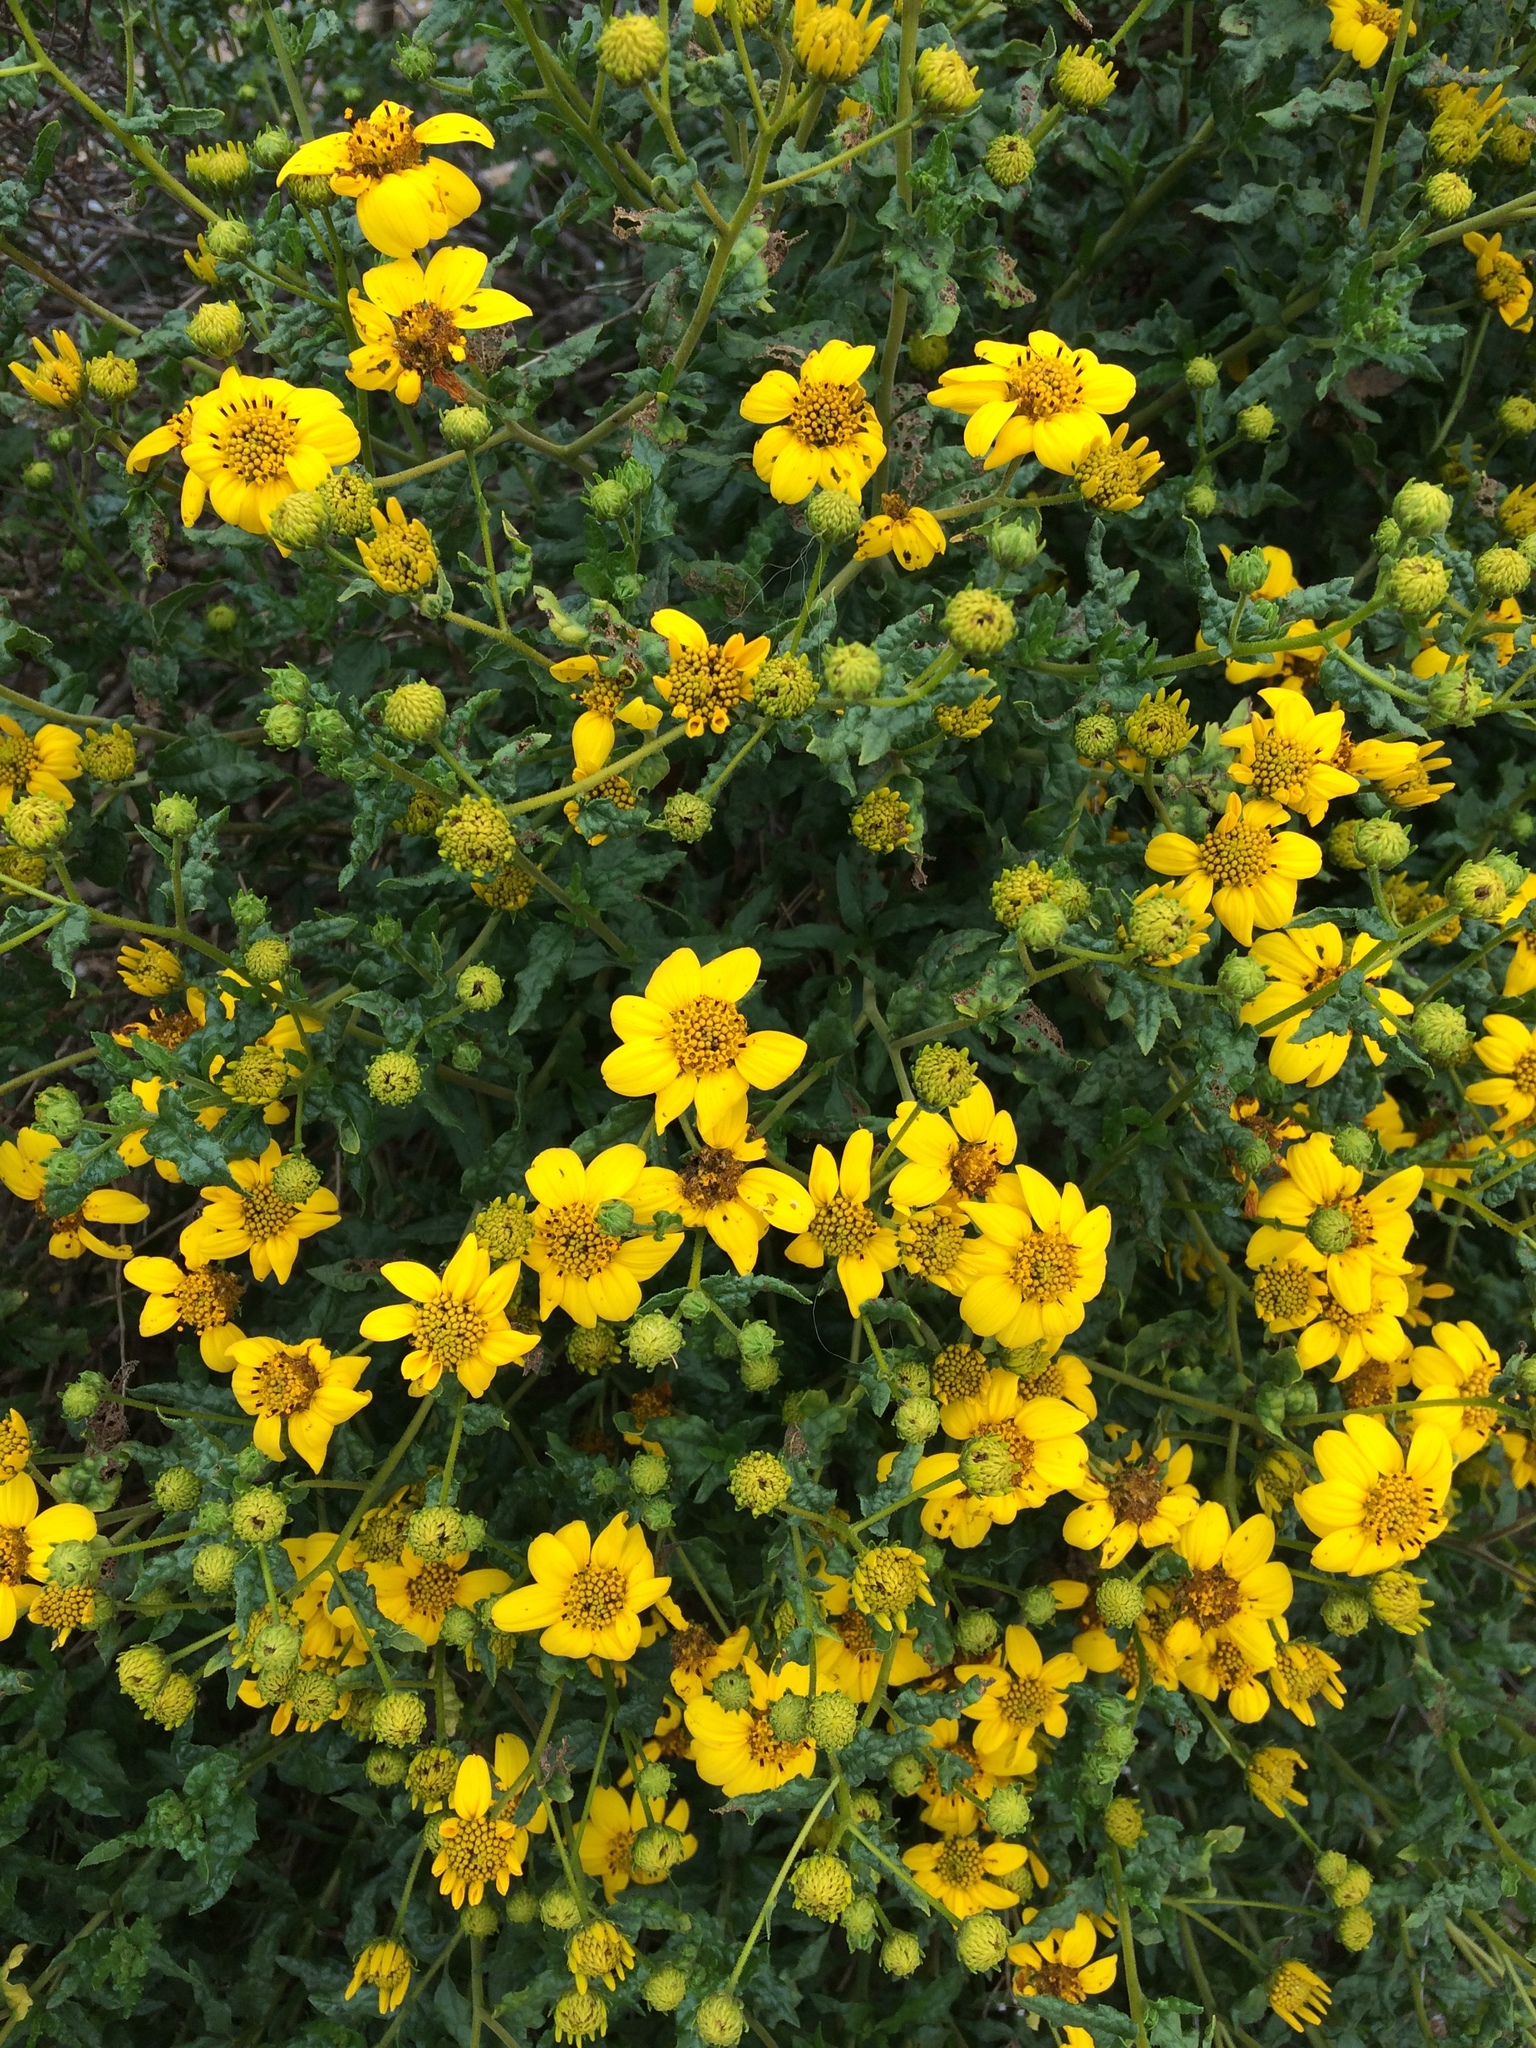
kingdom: Plantae
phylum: Tracheophyta
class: Magnoliopsida
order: Asterales
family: Asteraceae
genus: Bahiopsis
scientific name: Bahiopsis laciniata
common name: San diego county viguiera
